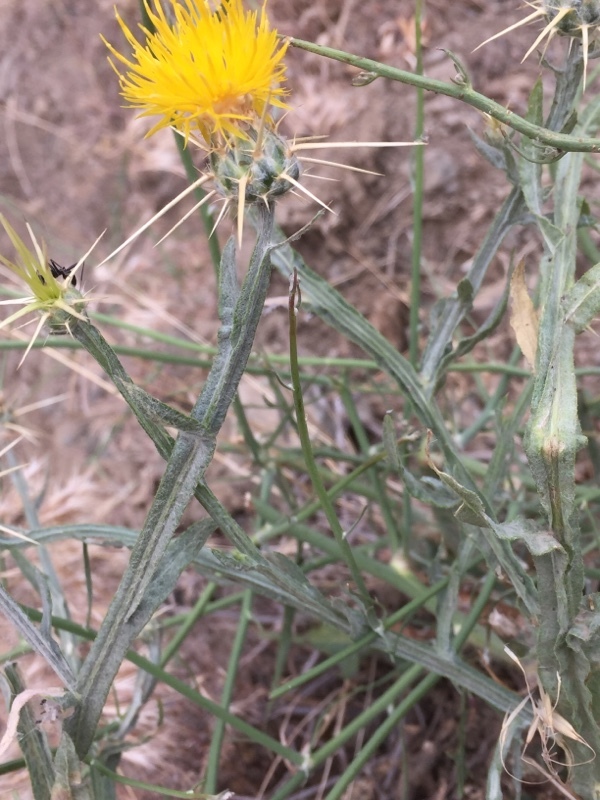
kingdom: Plantae
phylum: Tracheophyta
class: Magnoliopsida
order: Asterales
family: Asteraceae
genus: Centaurea
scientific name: Centaurea solstitialis
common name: Yellow star-thistle
